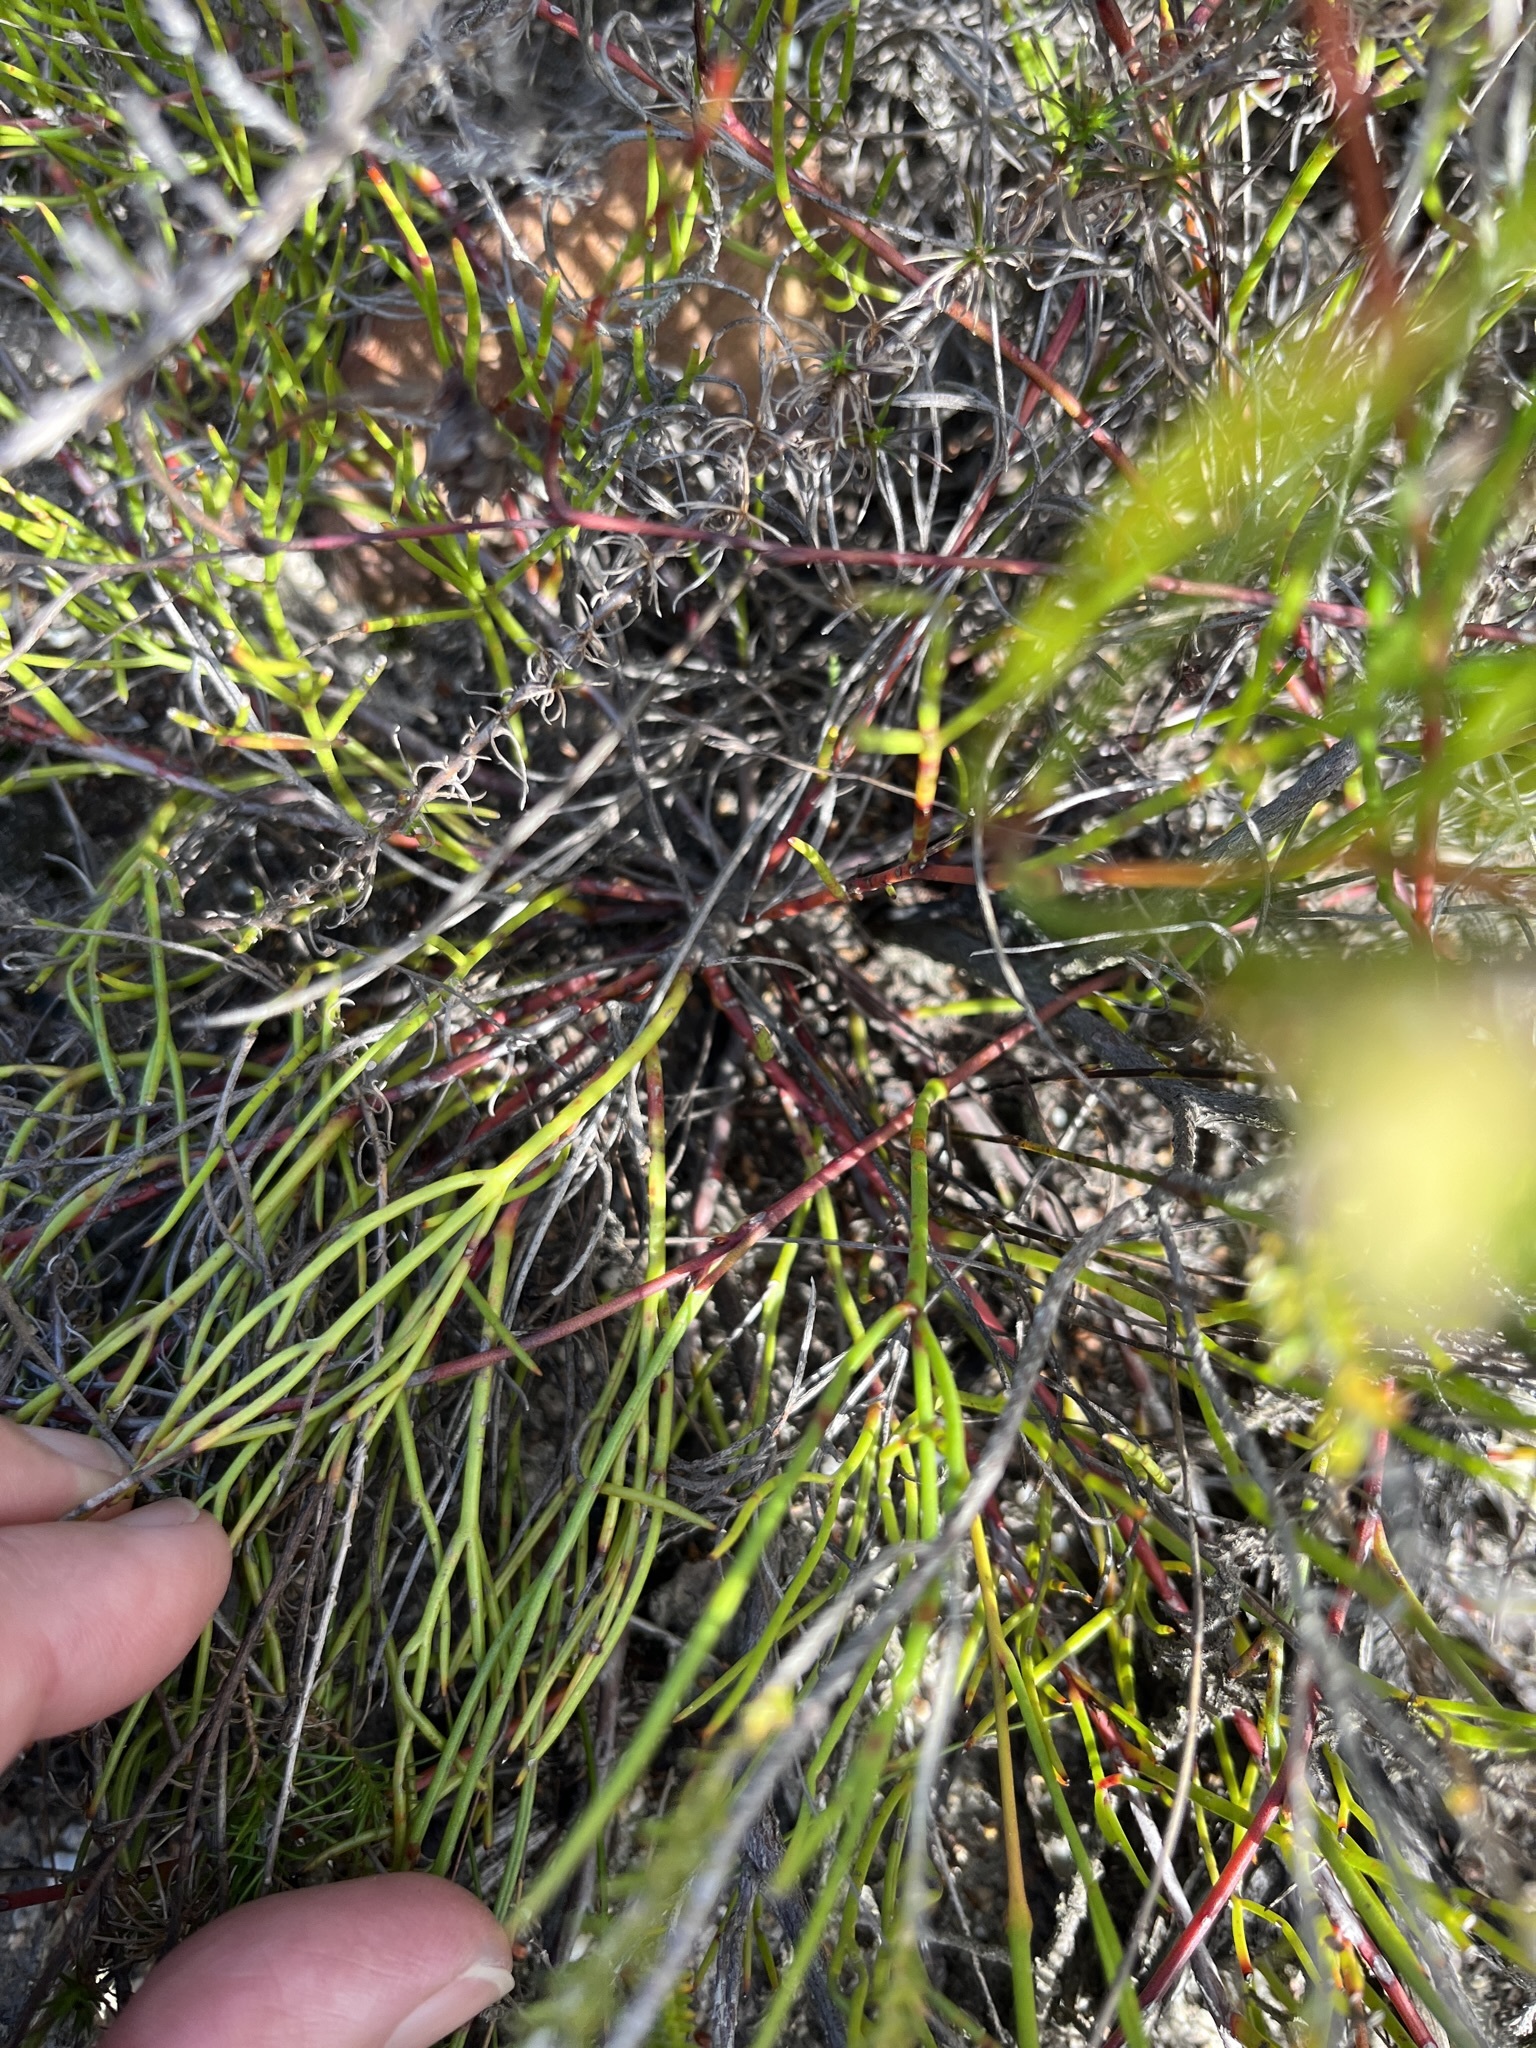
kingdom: Plantae
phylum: Tracheophyta
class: Magnoliopsida
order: Proteales
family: Proteaceae
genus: Serruria
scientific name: Serruria flagellifolia
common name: Houwhoek spiderhead
